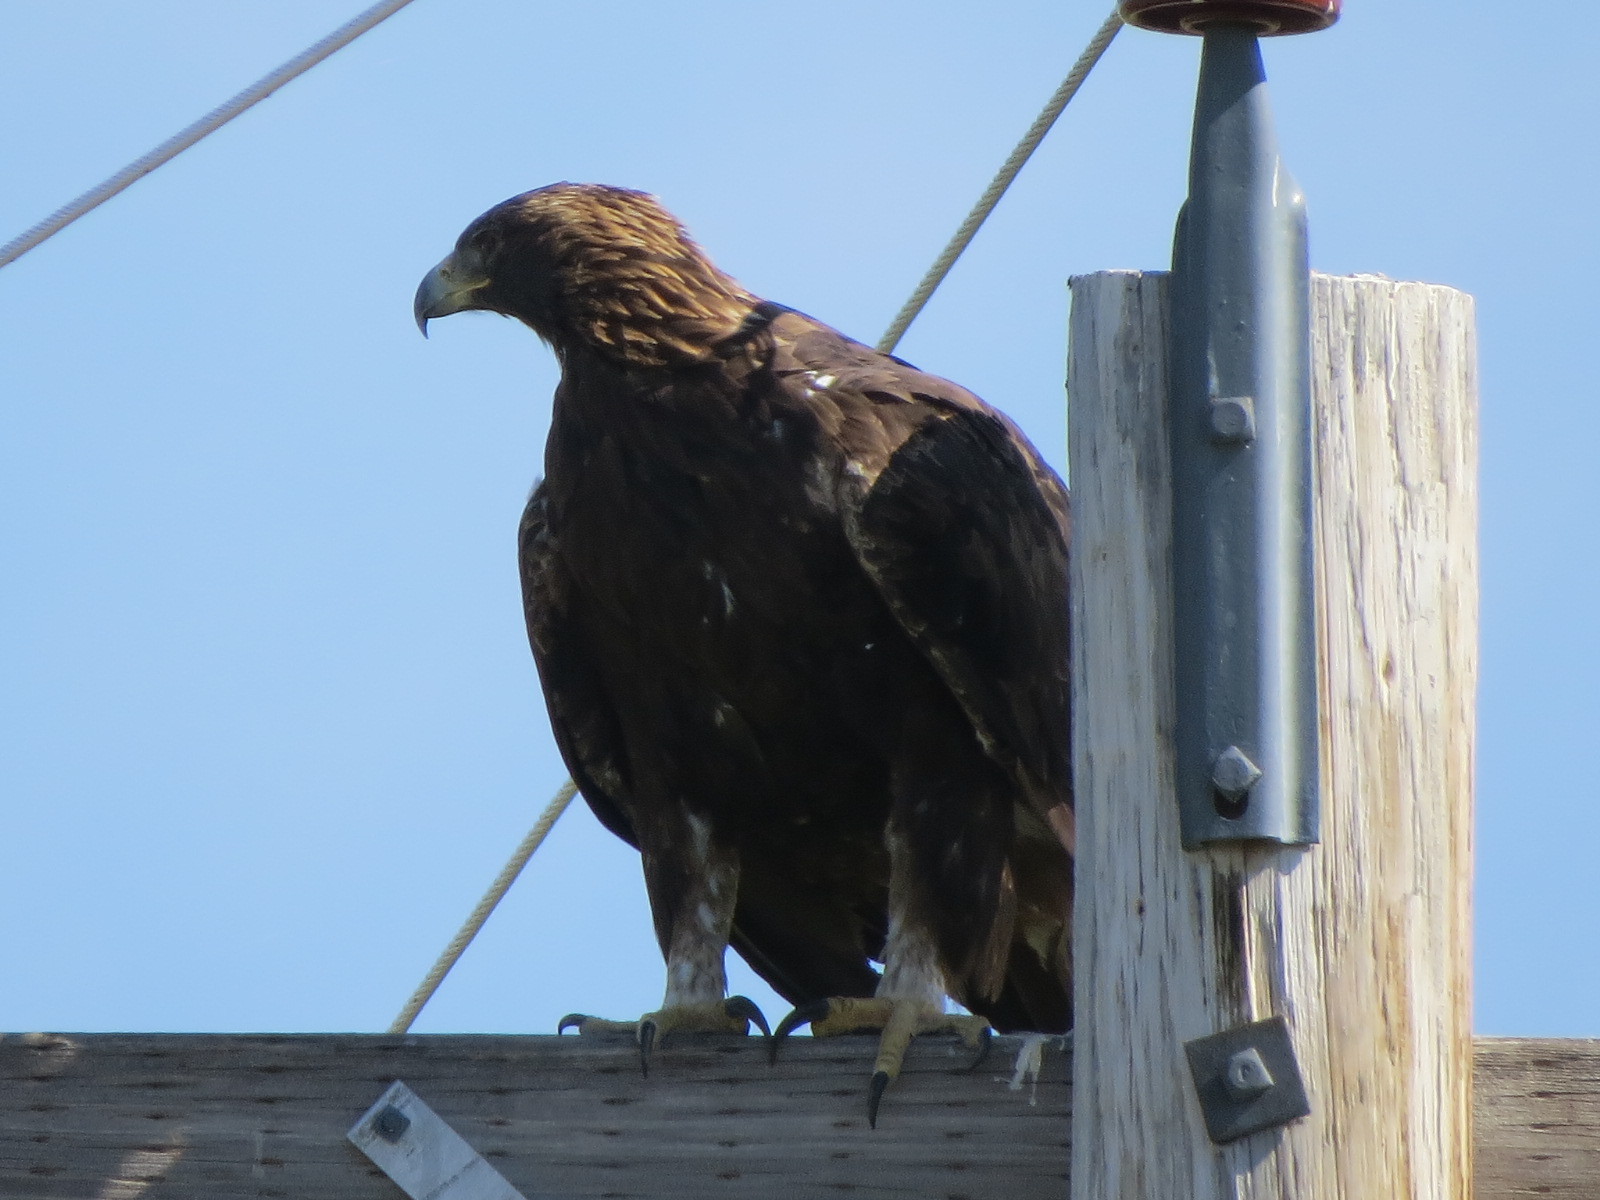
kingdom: Animalia
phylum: Chordata
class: Aves
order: Accipitriformes
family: Accipitridae
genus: Aquila
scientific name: Aquila chrysaetos
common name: Golden eagle
